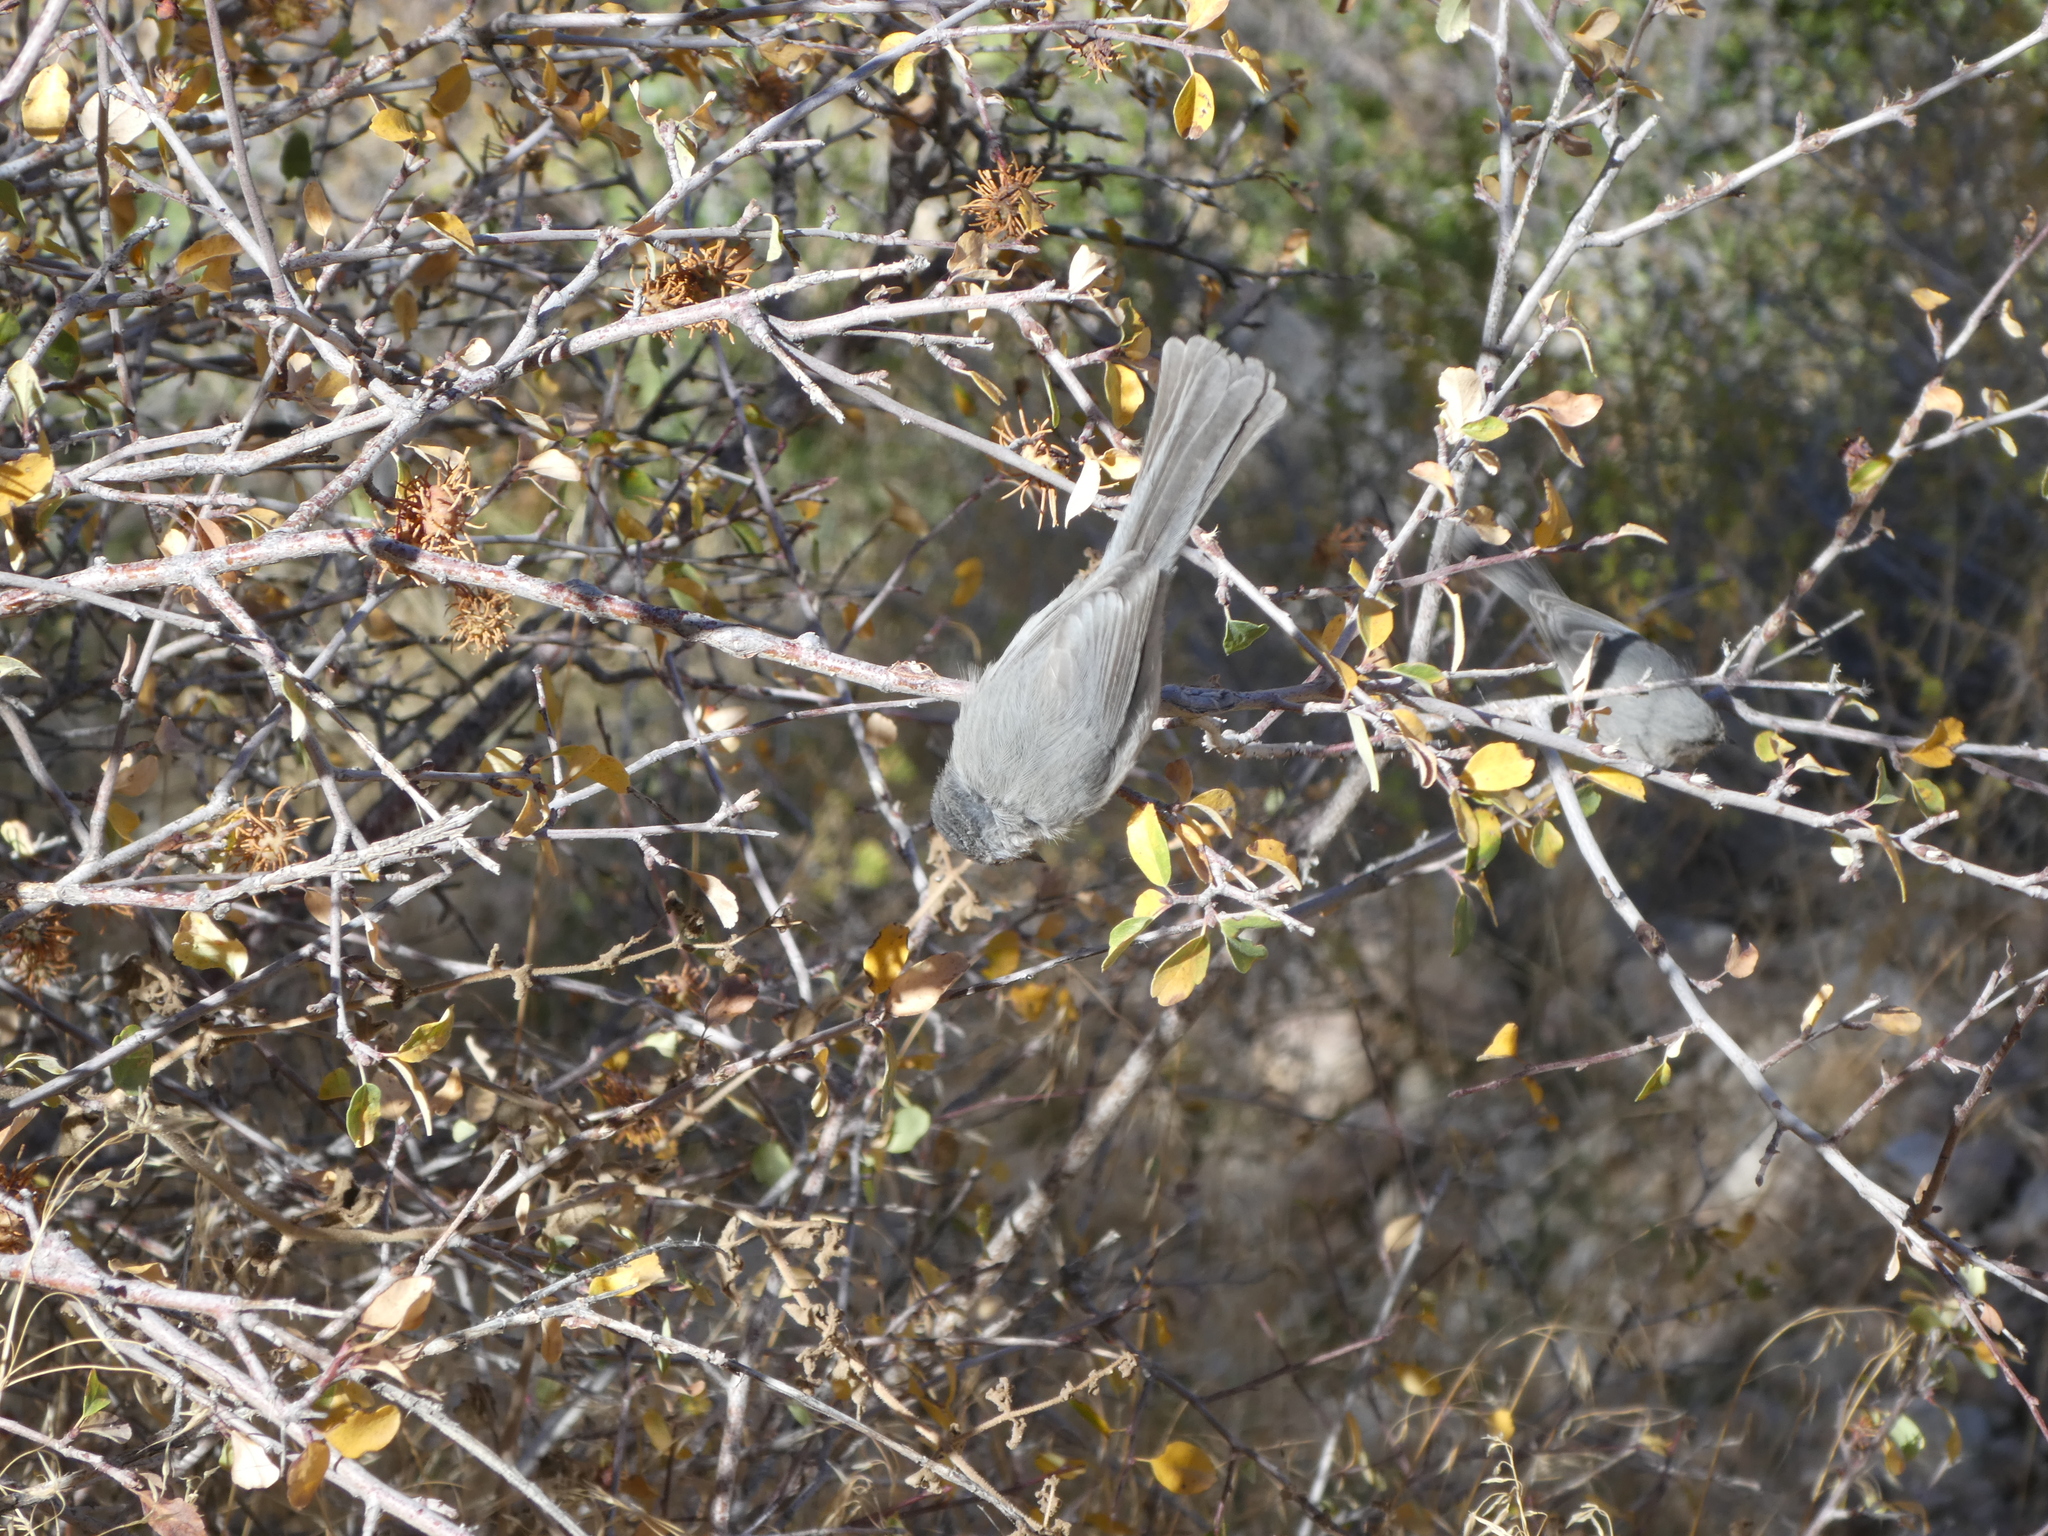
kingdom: Animalia
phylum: Chordata
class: Aves
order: Passeriformes
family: Aegithalidae
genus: Psaltriparus
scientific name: Psaltriparus minimus
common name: American bushtit
